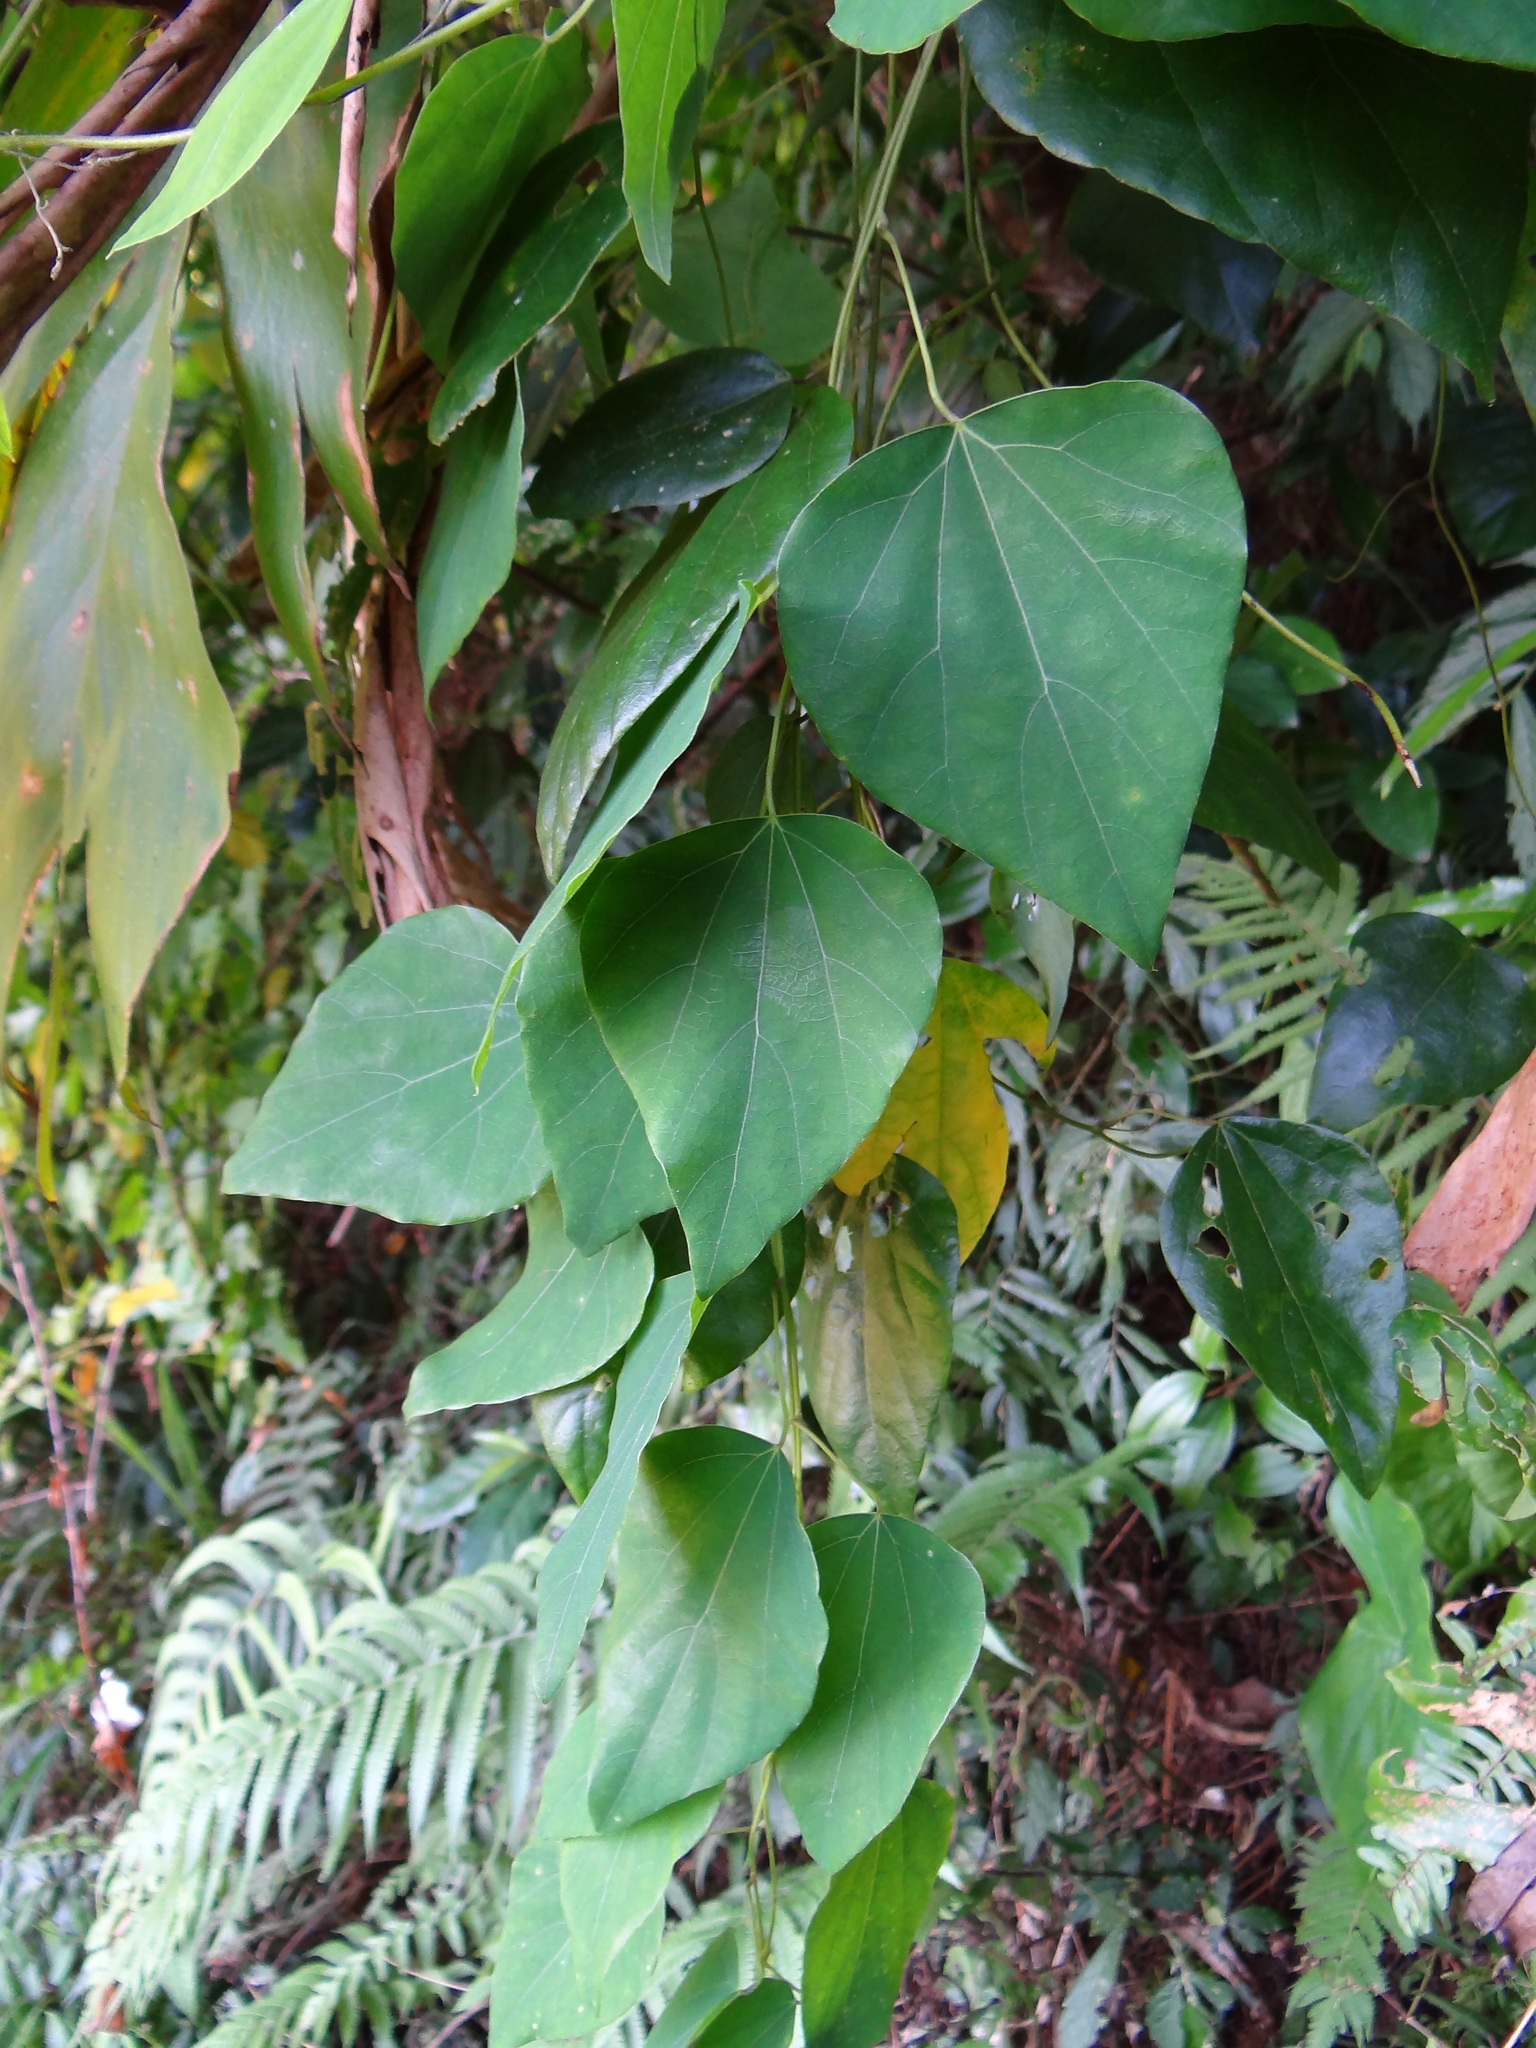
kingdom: Plantae
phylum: Tracheophyta
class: Magnoliopsida
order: Ranunculales
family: Menispermaceae
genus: Pericampylus
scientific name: Pericampylus glaucus
